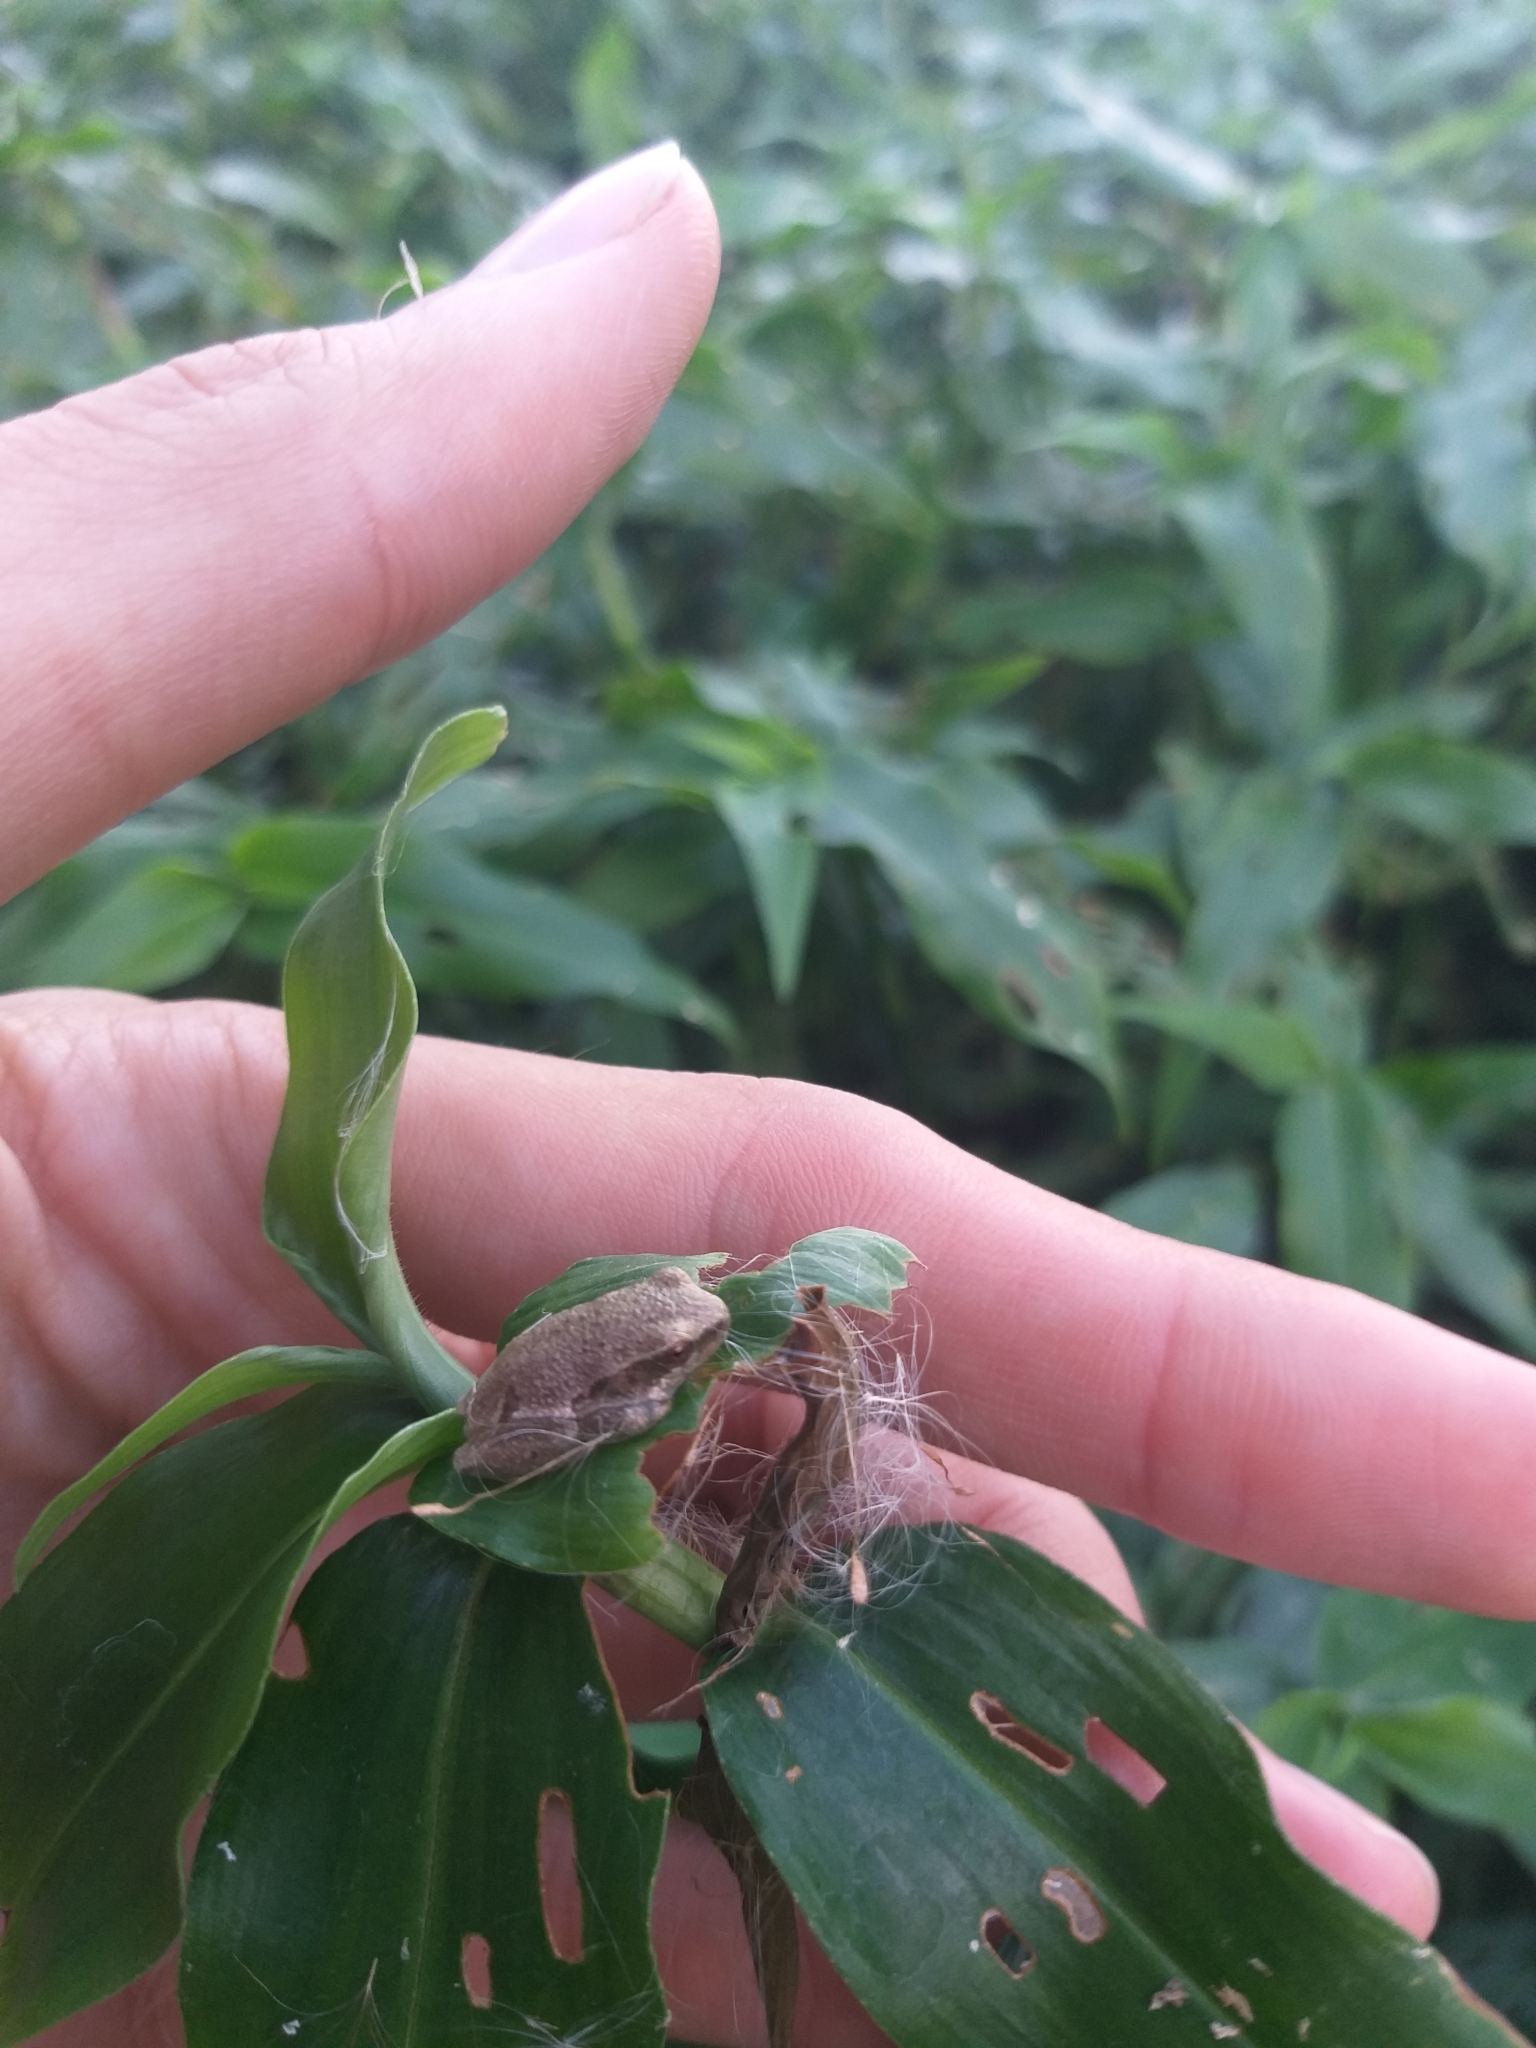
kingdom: Animalia
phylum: Chordata
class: Amphibia
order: Anura
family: Hyperoliidae
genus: Hyperolius
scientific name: Hyperolius marmoratus
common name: Painted reed frog
